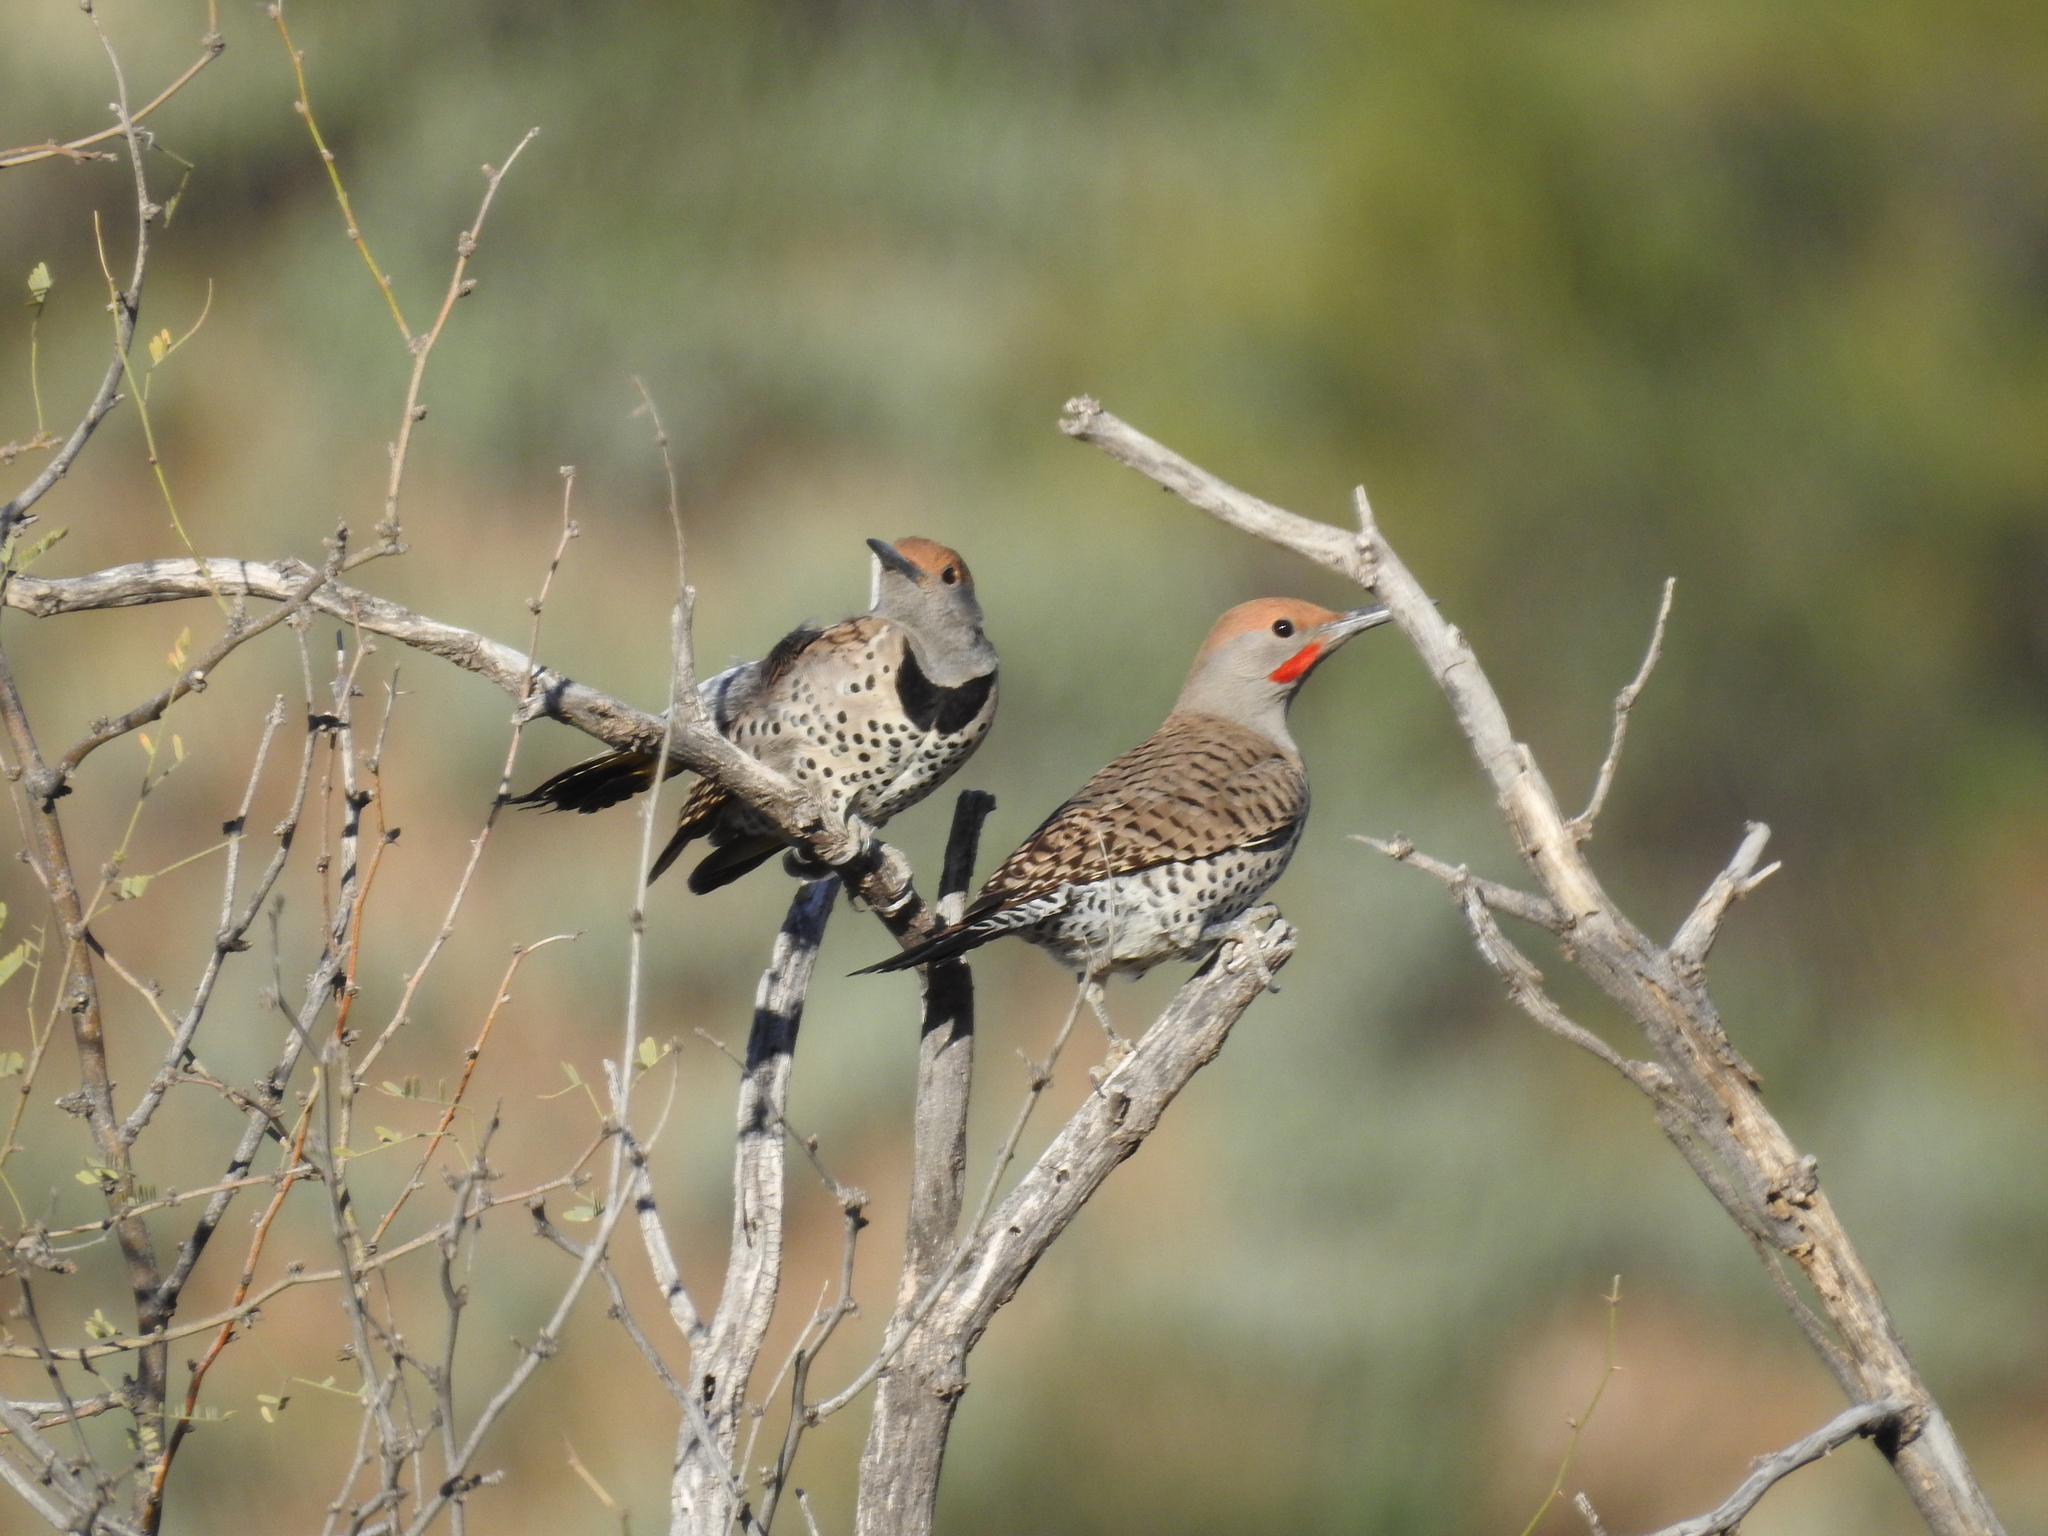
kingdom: Animalia
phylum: Chordata
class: Aves
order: Piciformes
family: Picidae
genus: Colaptes
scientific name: Colaptes chrysoides
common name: Gilded flicker
